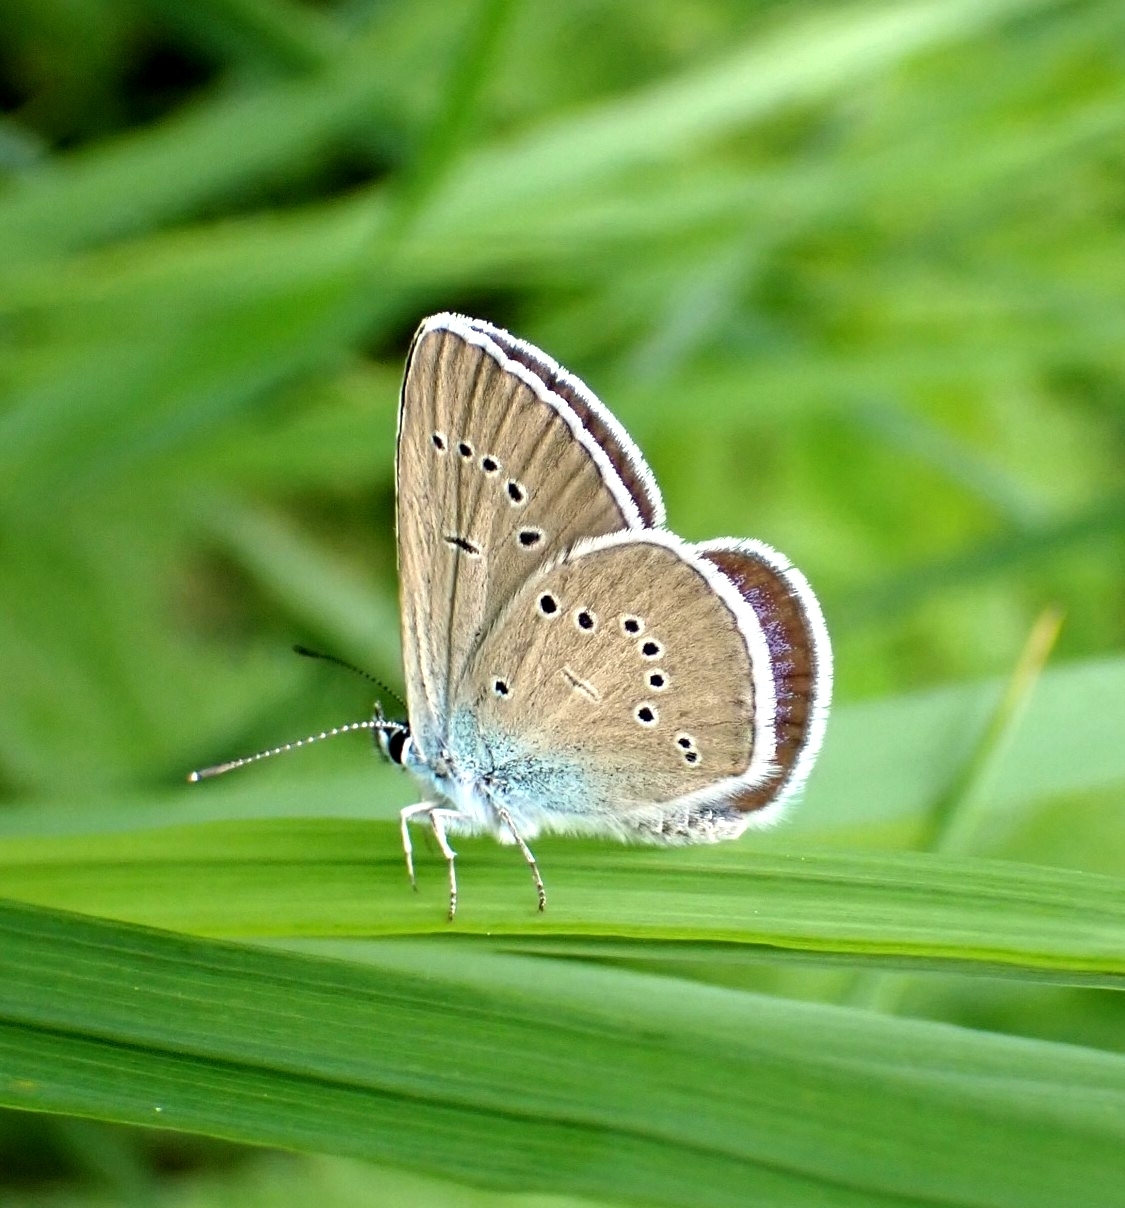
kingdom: Animalia
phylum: Arthropoda
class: Insecta
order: Lepidoptera
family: Lycaenidae
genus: Cyaniris
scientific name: Cyaniris semiargus
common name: Mazarine blue
